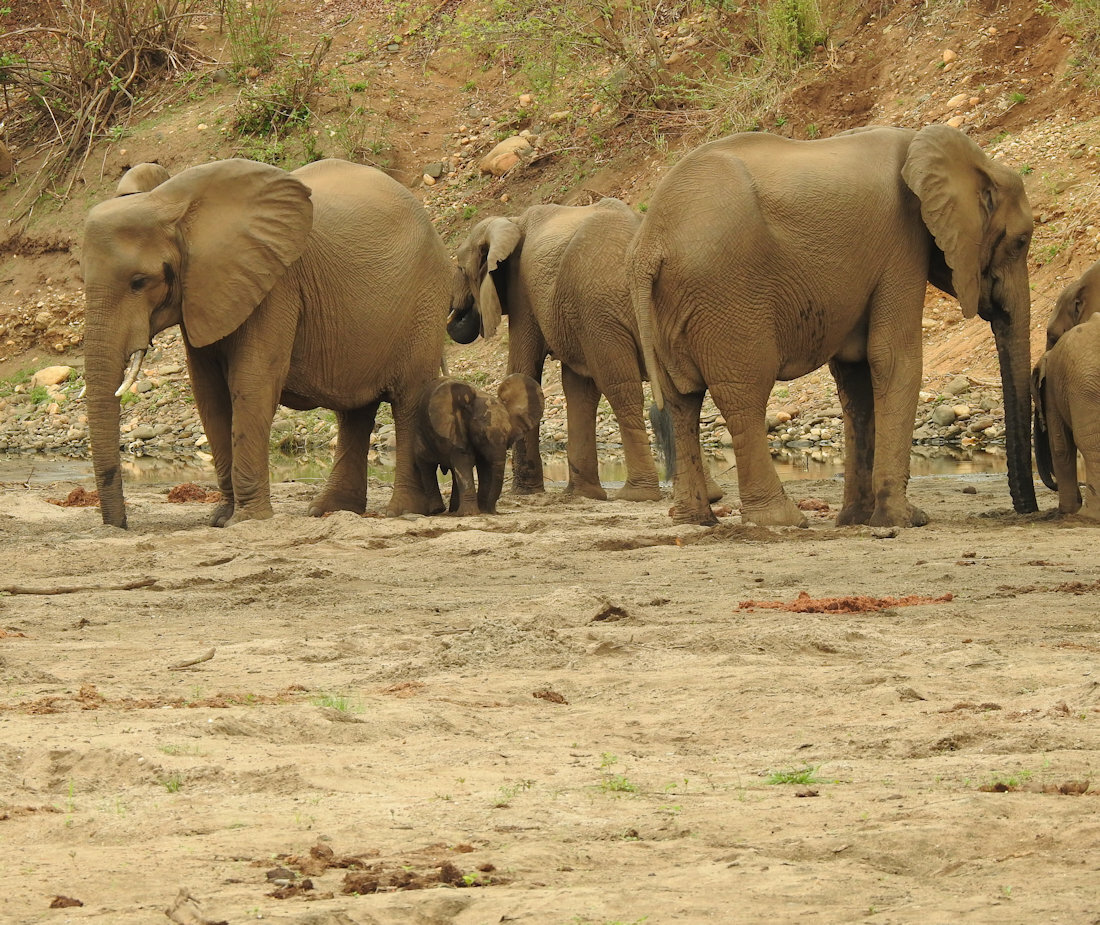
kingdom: Animalia
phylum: Chordata
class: Mammalia
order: Proboscidea
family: Elephantidae
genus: Loxodonta
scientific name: Loxodonta africana
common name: African elephant
